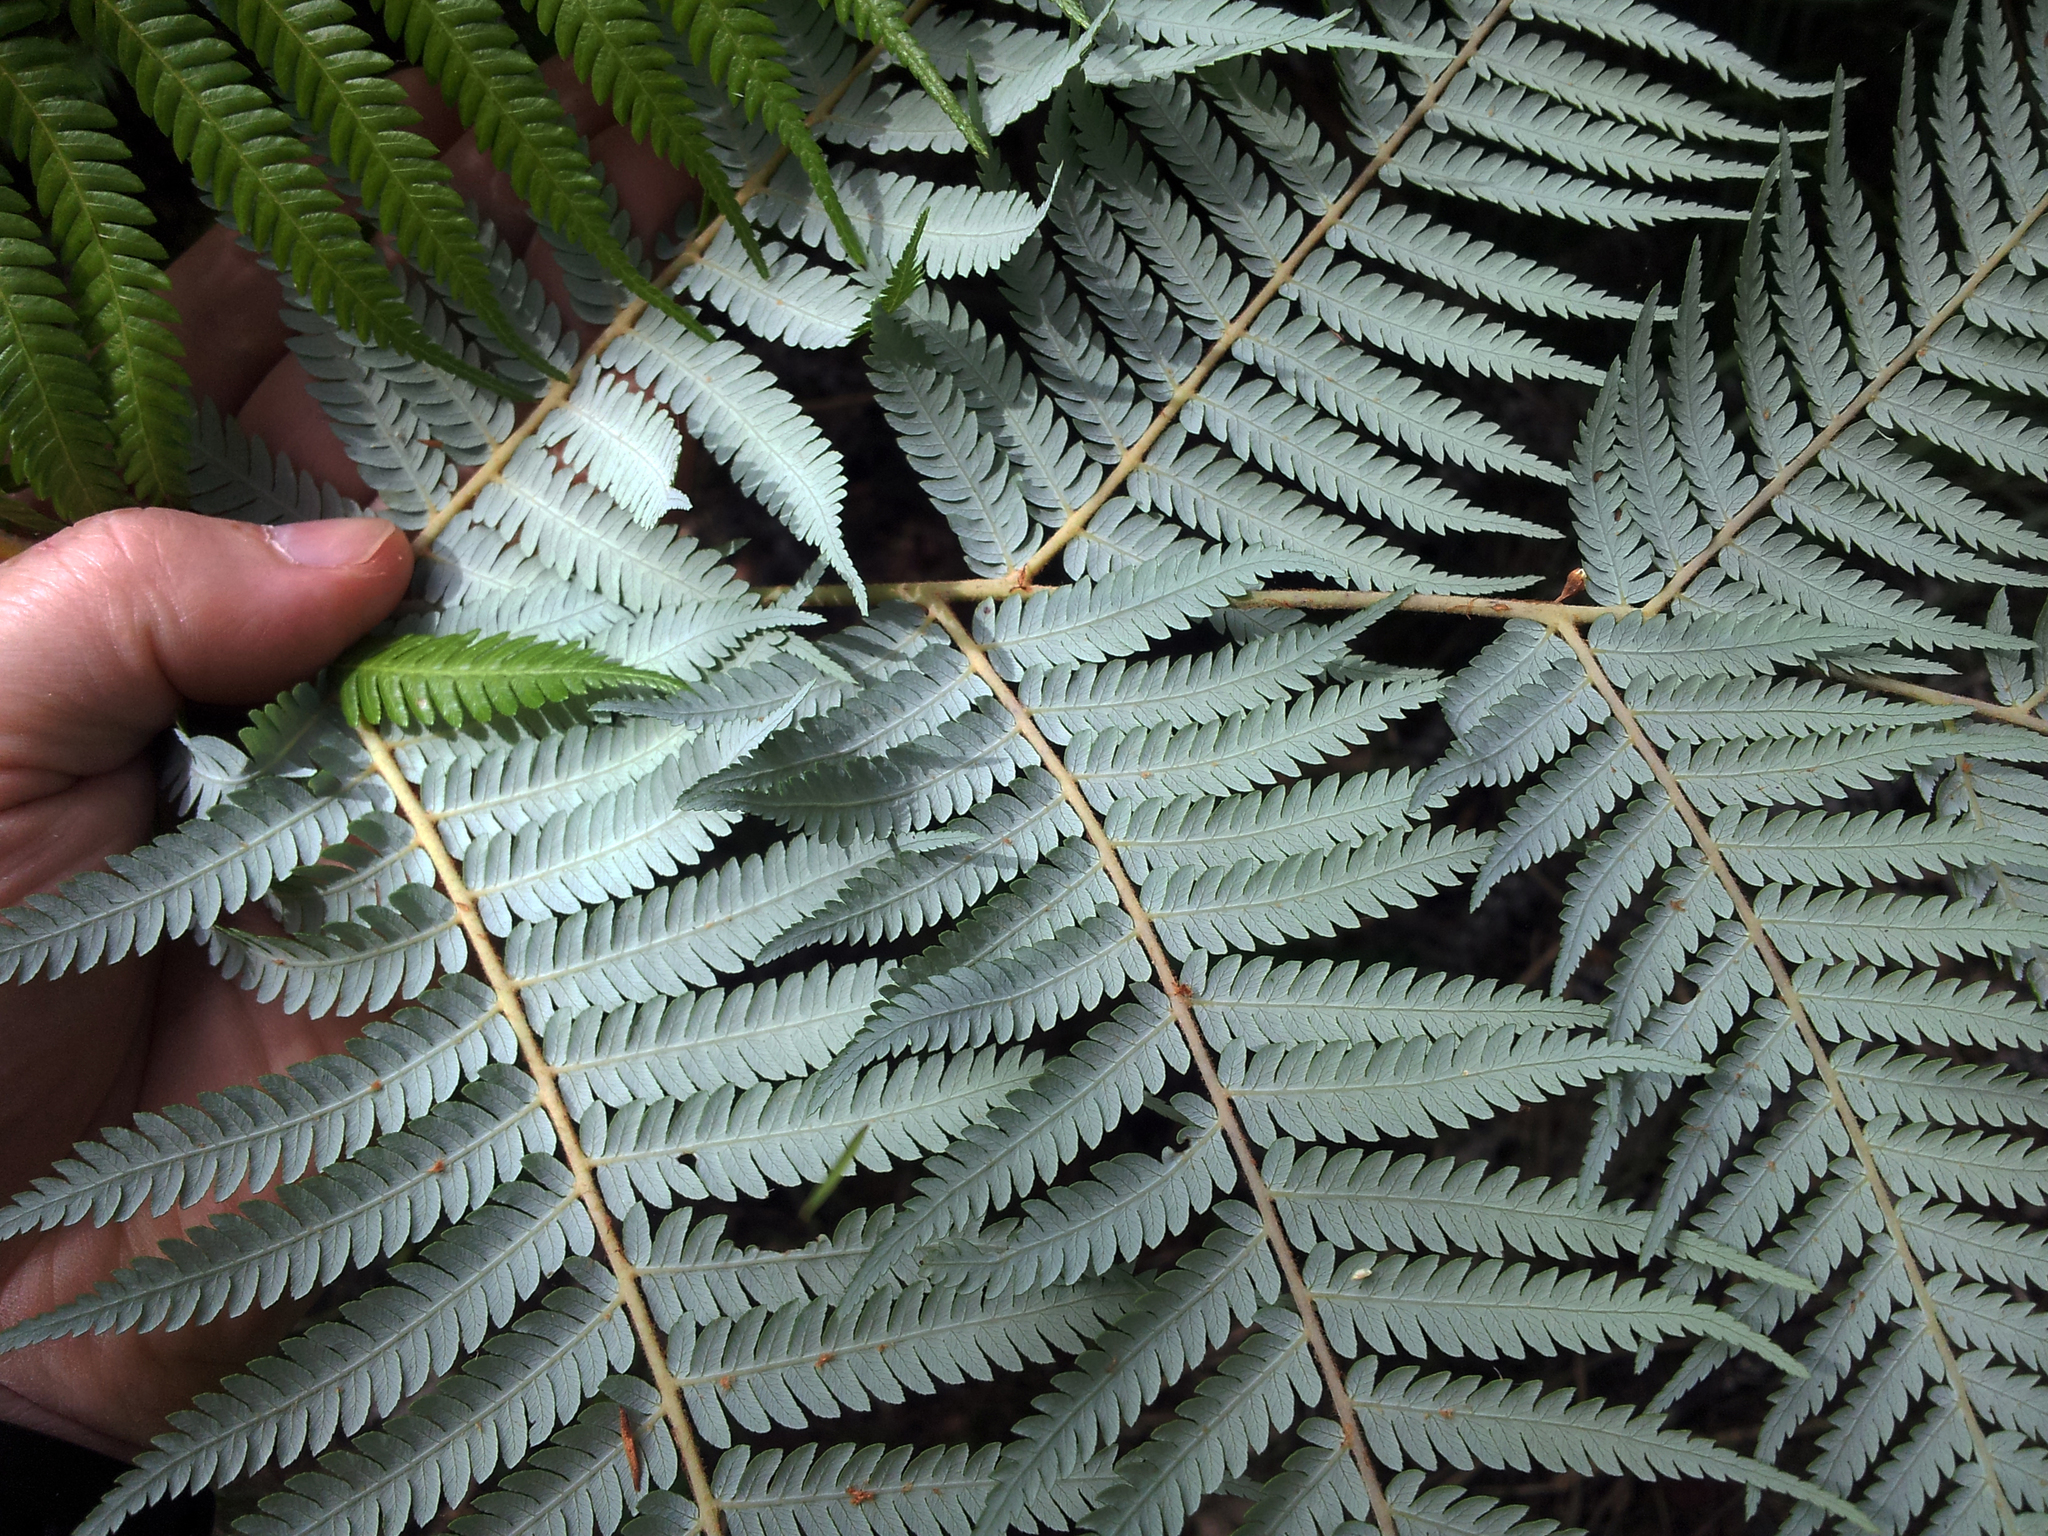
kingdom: Plantae
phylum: Tracheophyta
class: Polypodiopsida
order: Cyatheales
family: Cyatheaceae
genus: Alsophila
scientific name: Alsophila dealbata
